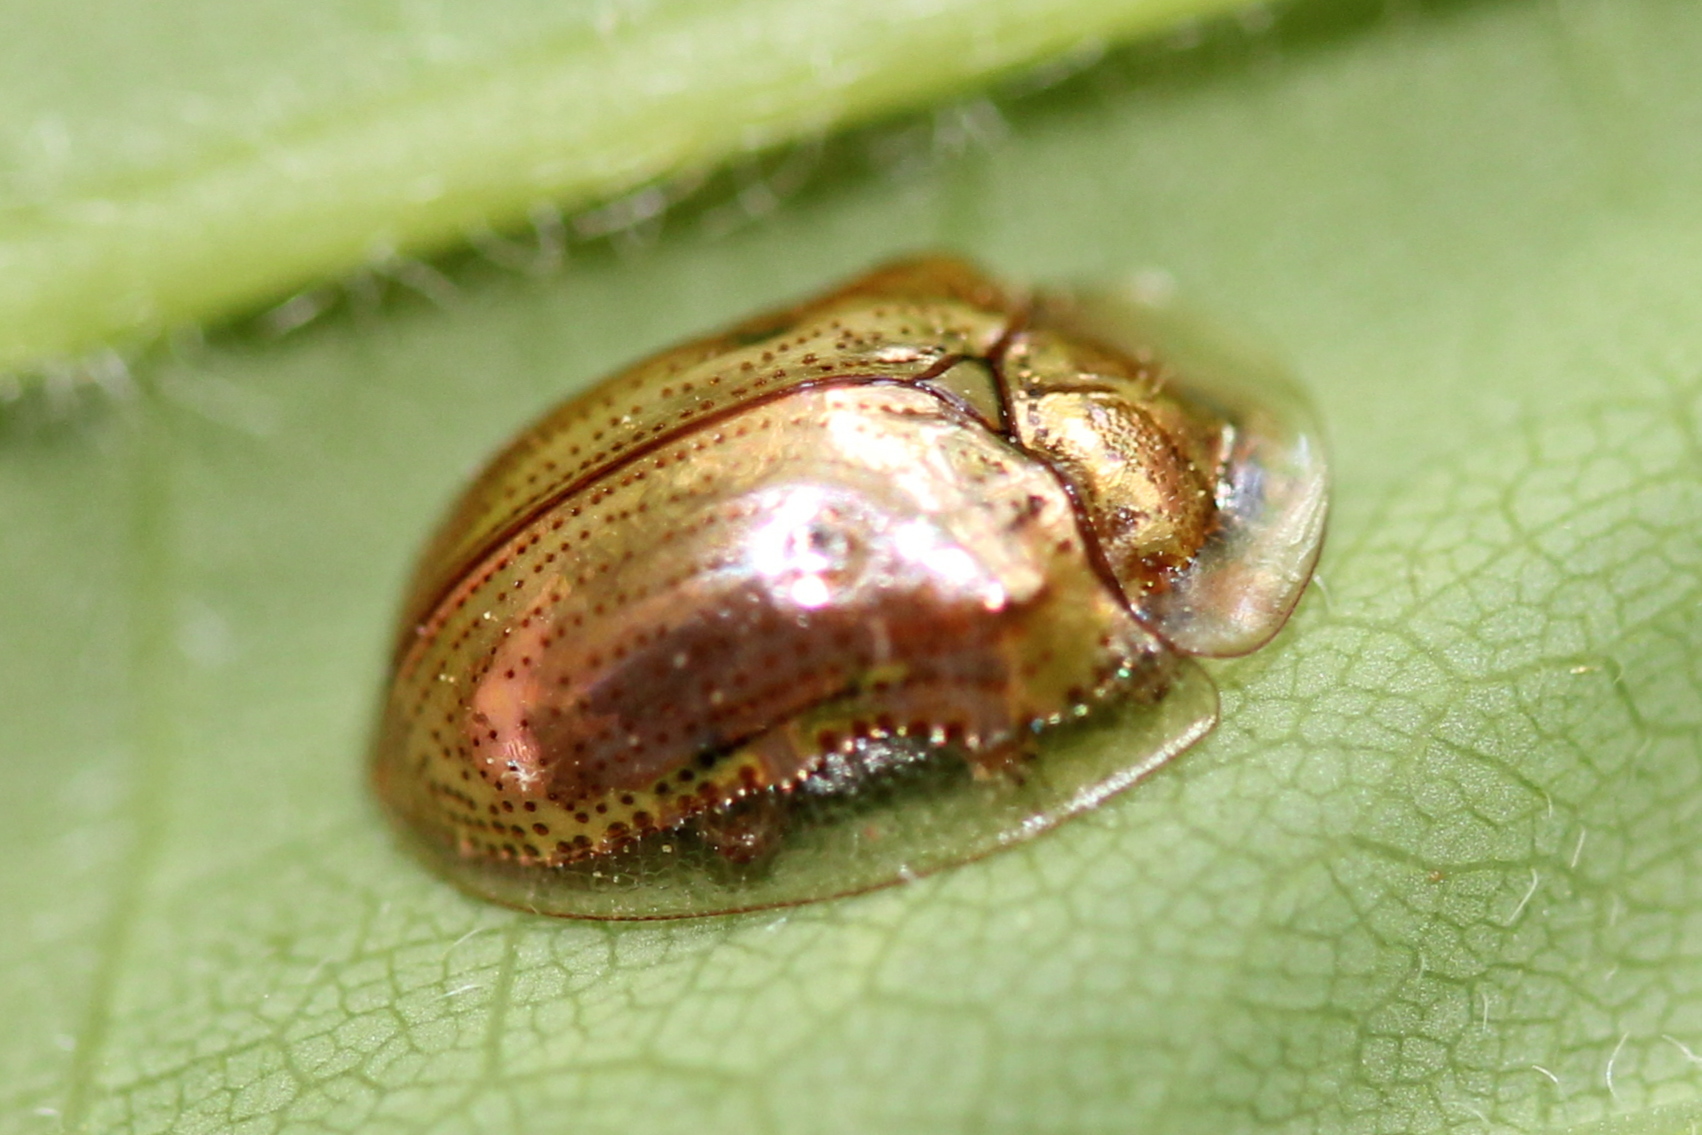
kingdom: Animalia
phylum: Arthropoda
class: Insecta
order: Coleoptera
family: Chrysomelidae
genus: Charidotella
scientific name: Charidotella sexpunctata
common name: Golden tortoise beetle
